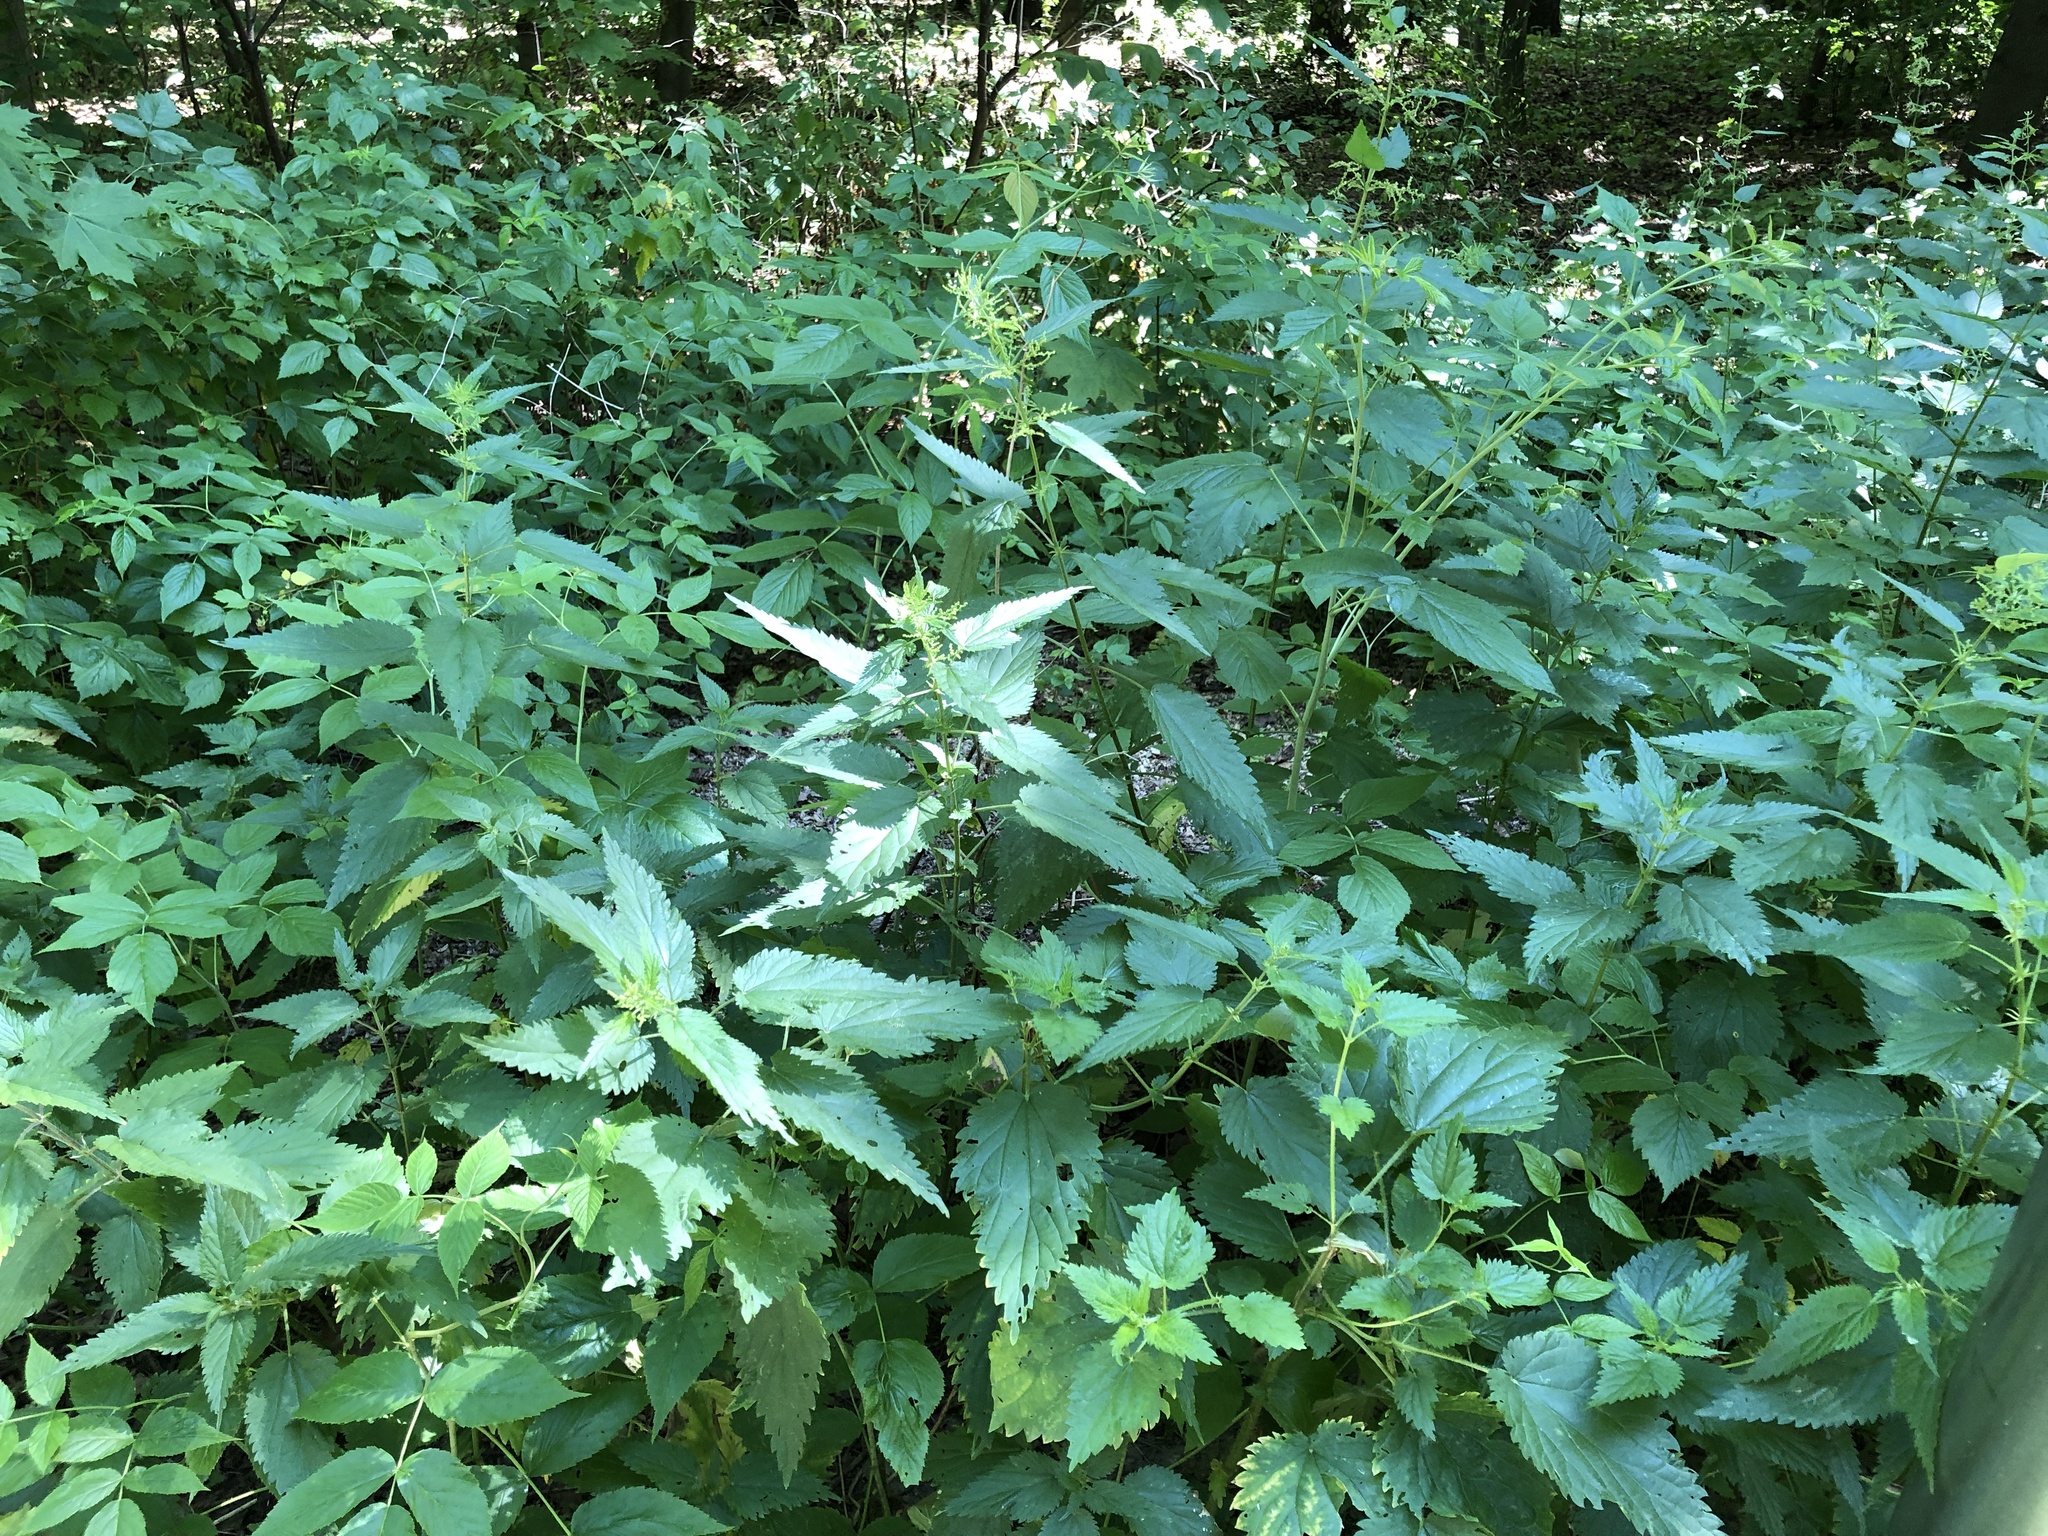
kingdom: Plantae
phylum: Tracheophyta
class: Magnoliopsida
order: Rosales
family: Urticaceae
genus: Urtica
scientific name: Urtica dioica
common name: Common nettle
